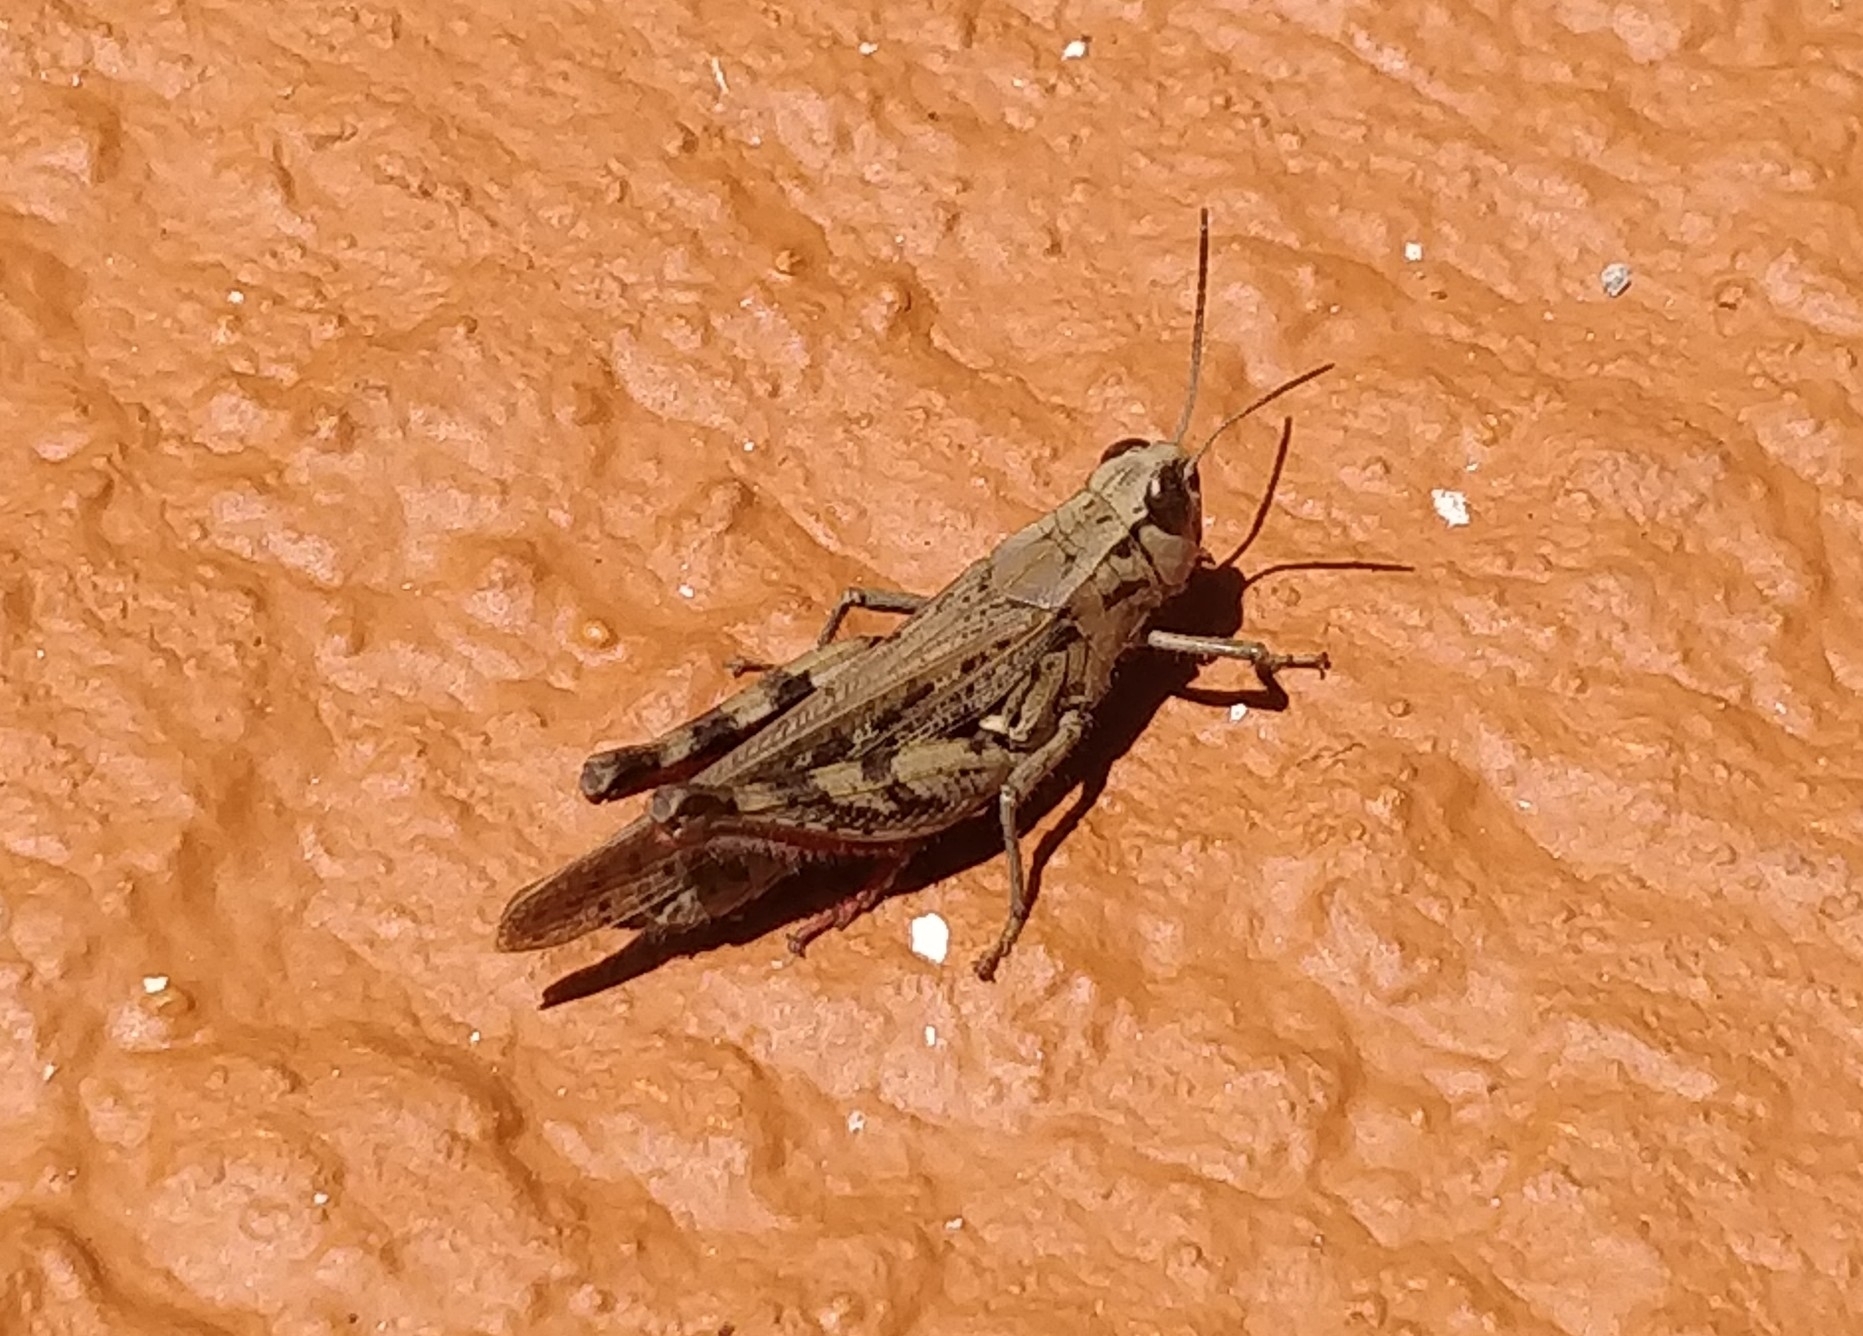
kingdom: Animalia
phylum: Arthropoda
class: Insecta
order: Orthoptera
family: Acrididae
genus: Calliptamus
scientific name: Calliptamus plebeius
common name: Canarian pincer grasshopper
